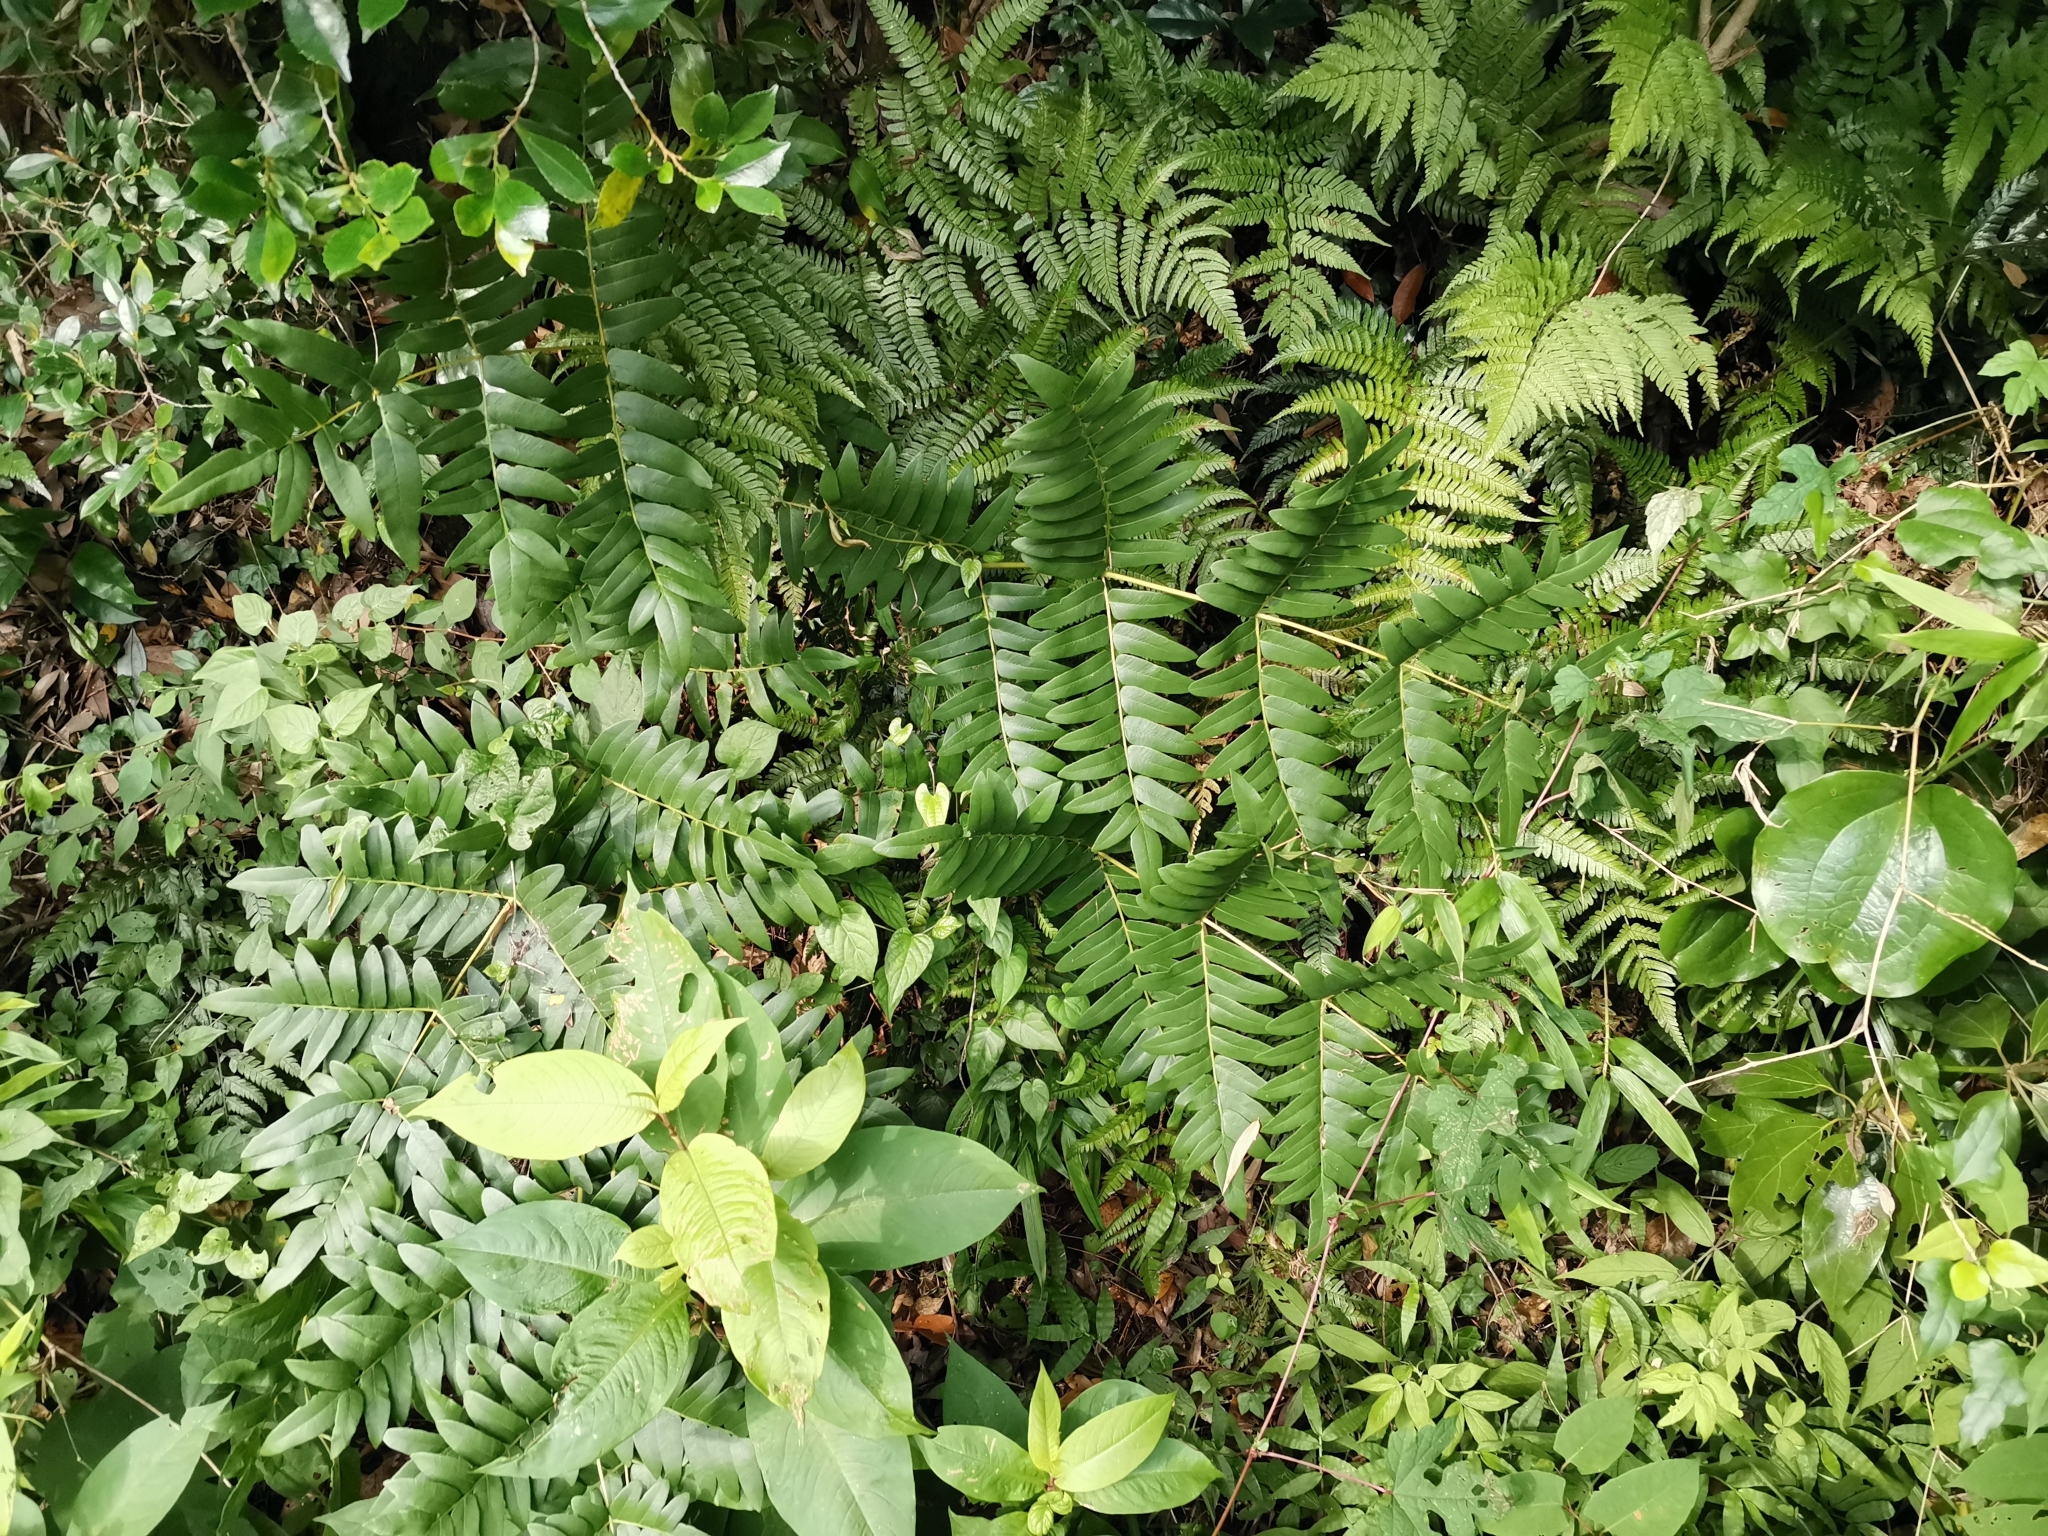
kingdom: Plantae
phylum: Tracheophyta
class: Polypodiopsida
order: Osmundales
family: Osmundaceae
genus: Osmunda
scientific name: Osmunda japonica
